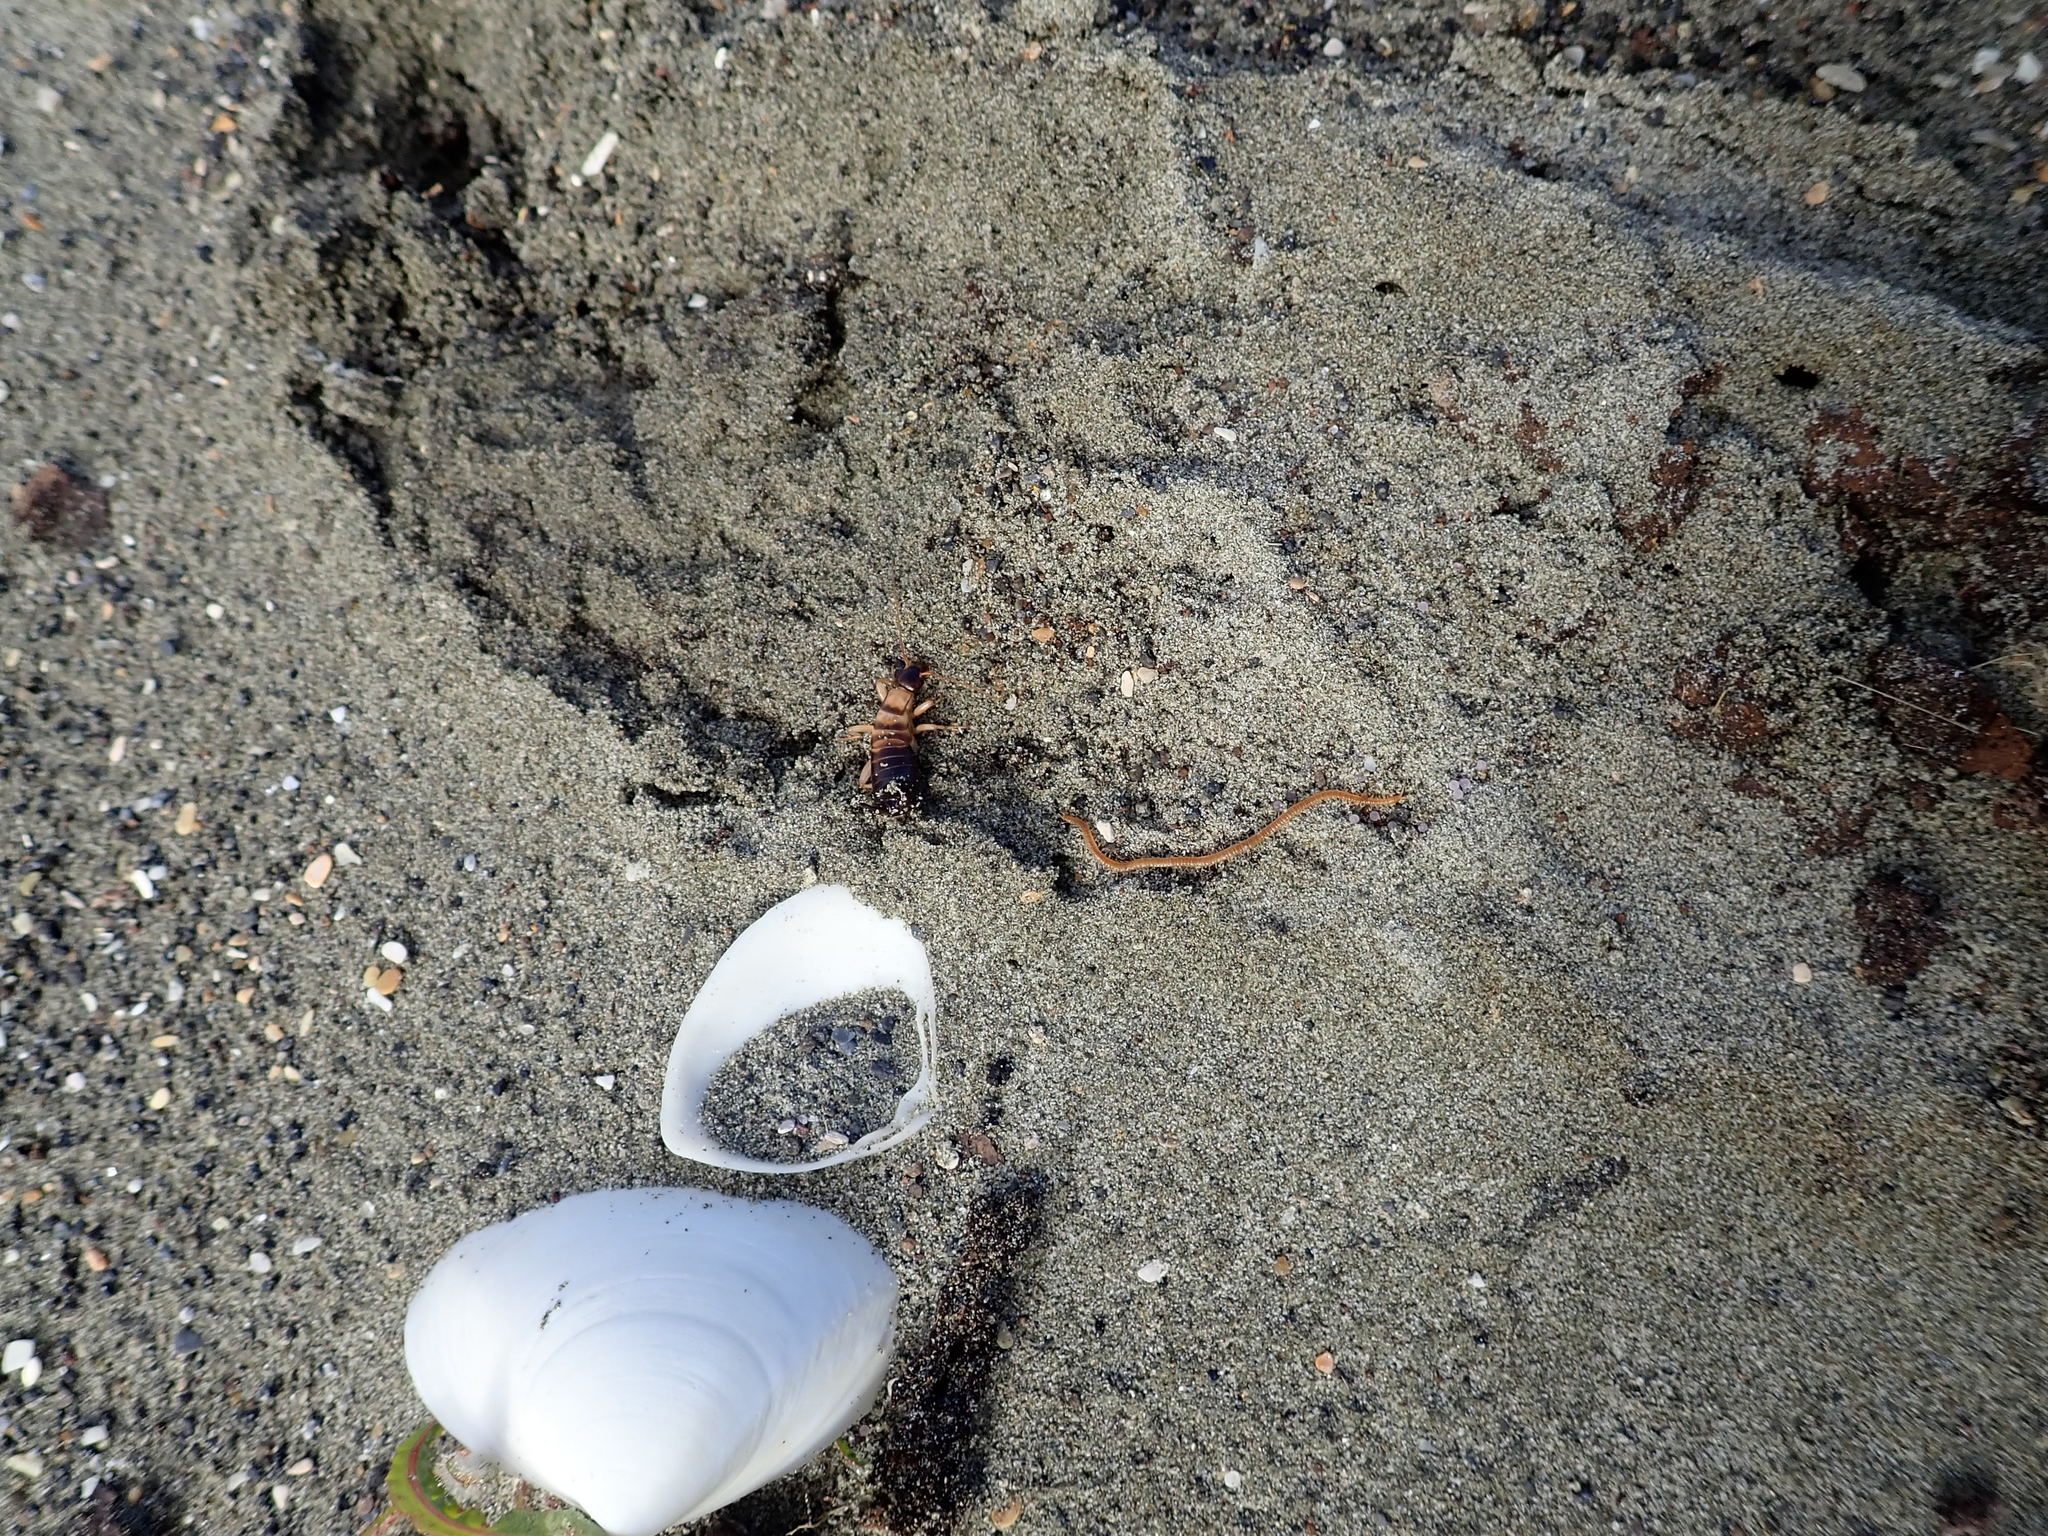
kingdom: Animalia
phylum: Arthropoda
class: Insecta
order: Dermaptera
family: Anisolabididae
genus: Anisolabis
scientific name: Anisolabis littorea
